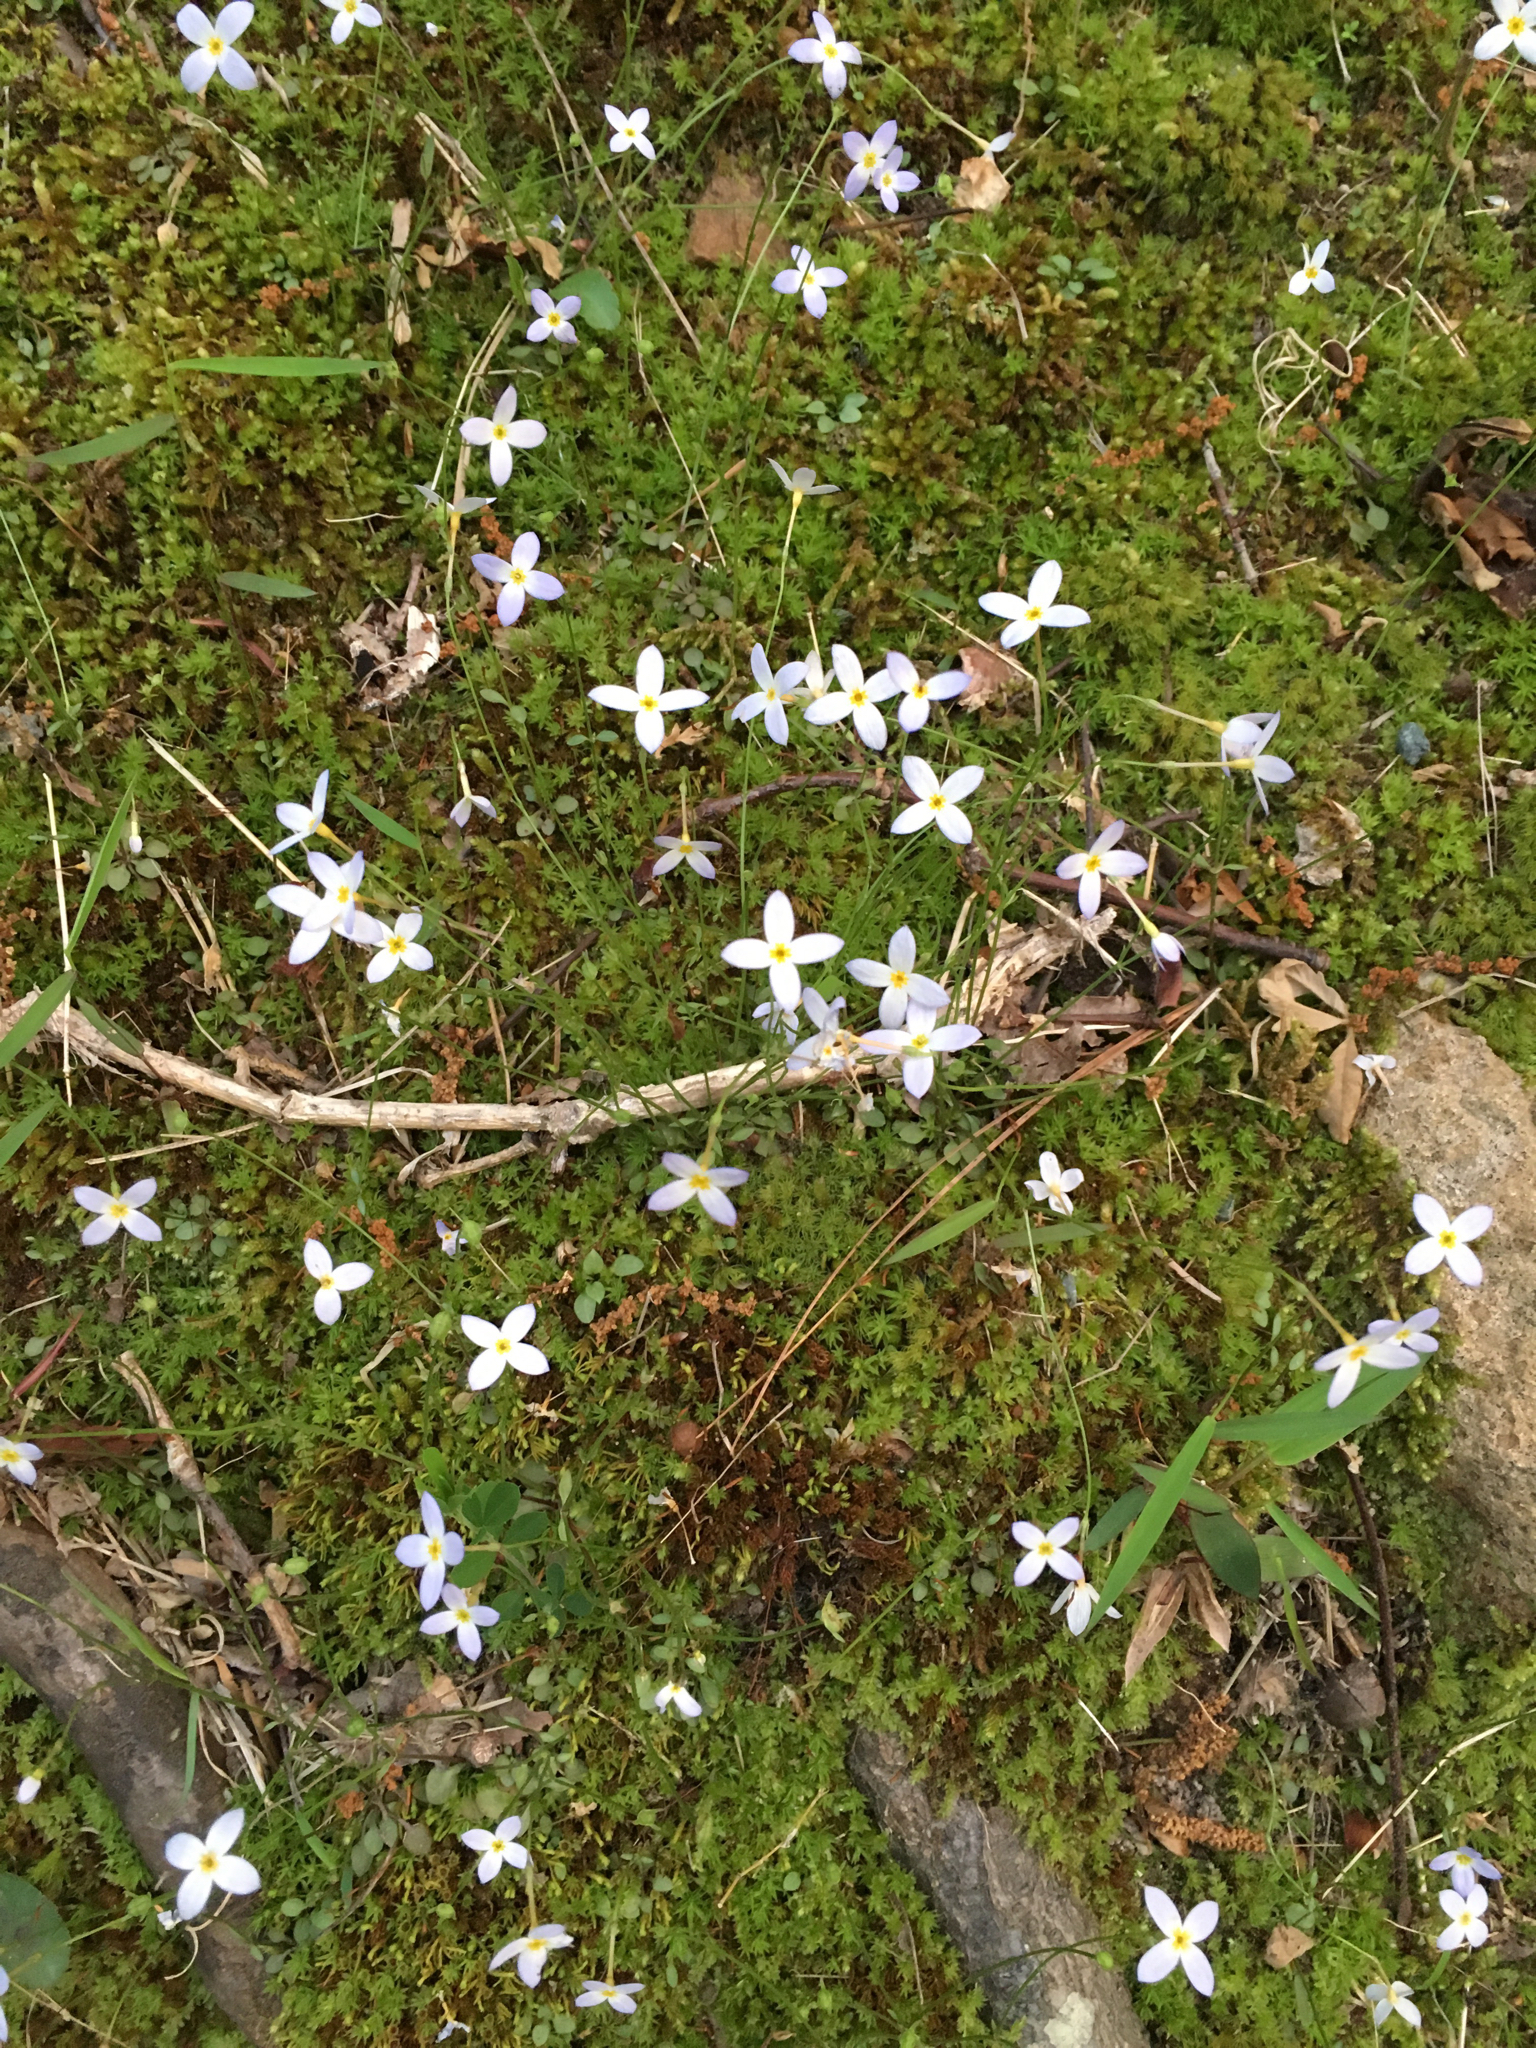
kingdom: Plantae
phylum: Tracheophyta
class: Magnoliopsida
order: Gentianales
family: Rubiaceae
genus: Houstonia
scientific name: Houstonia caerulea
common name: Bluets
